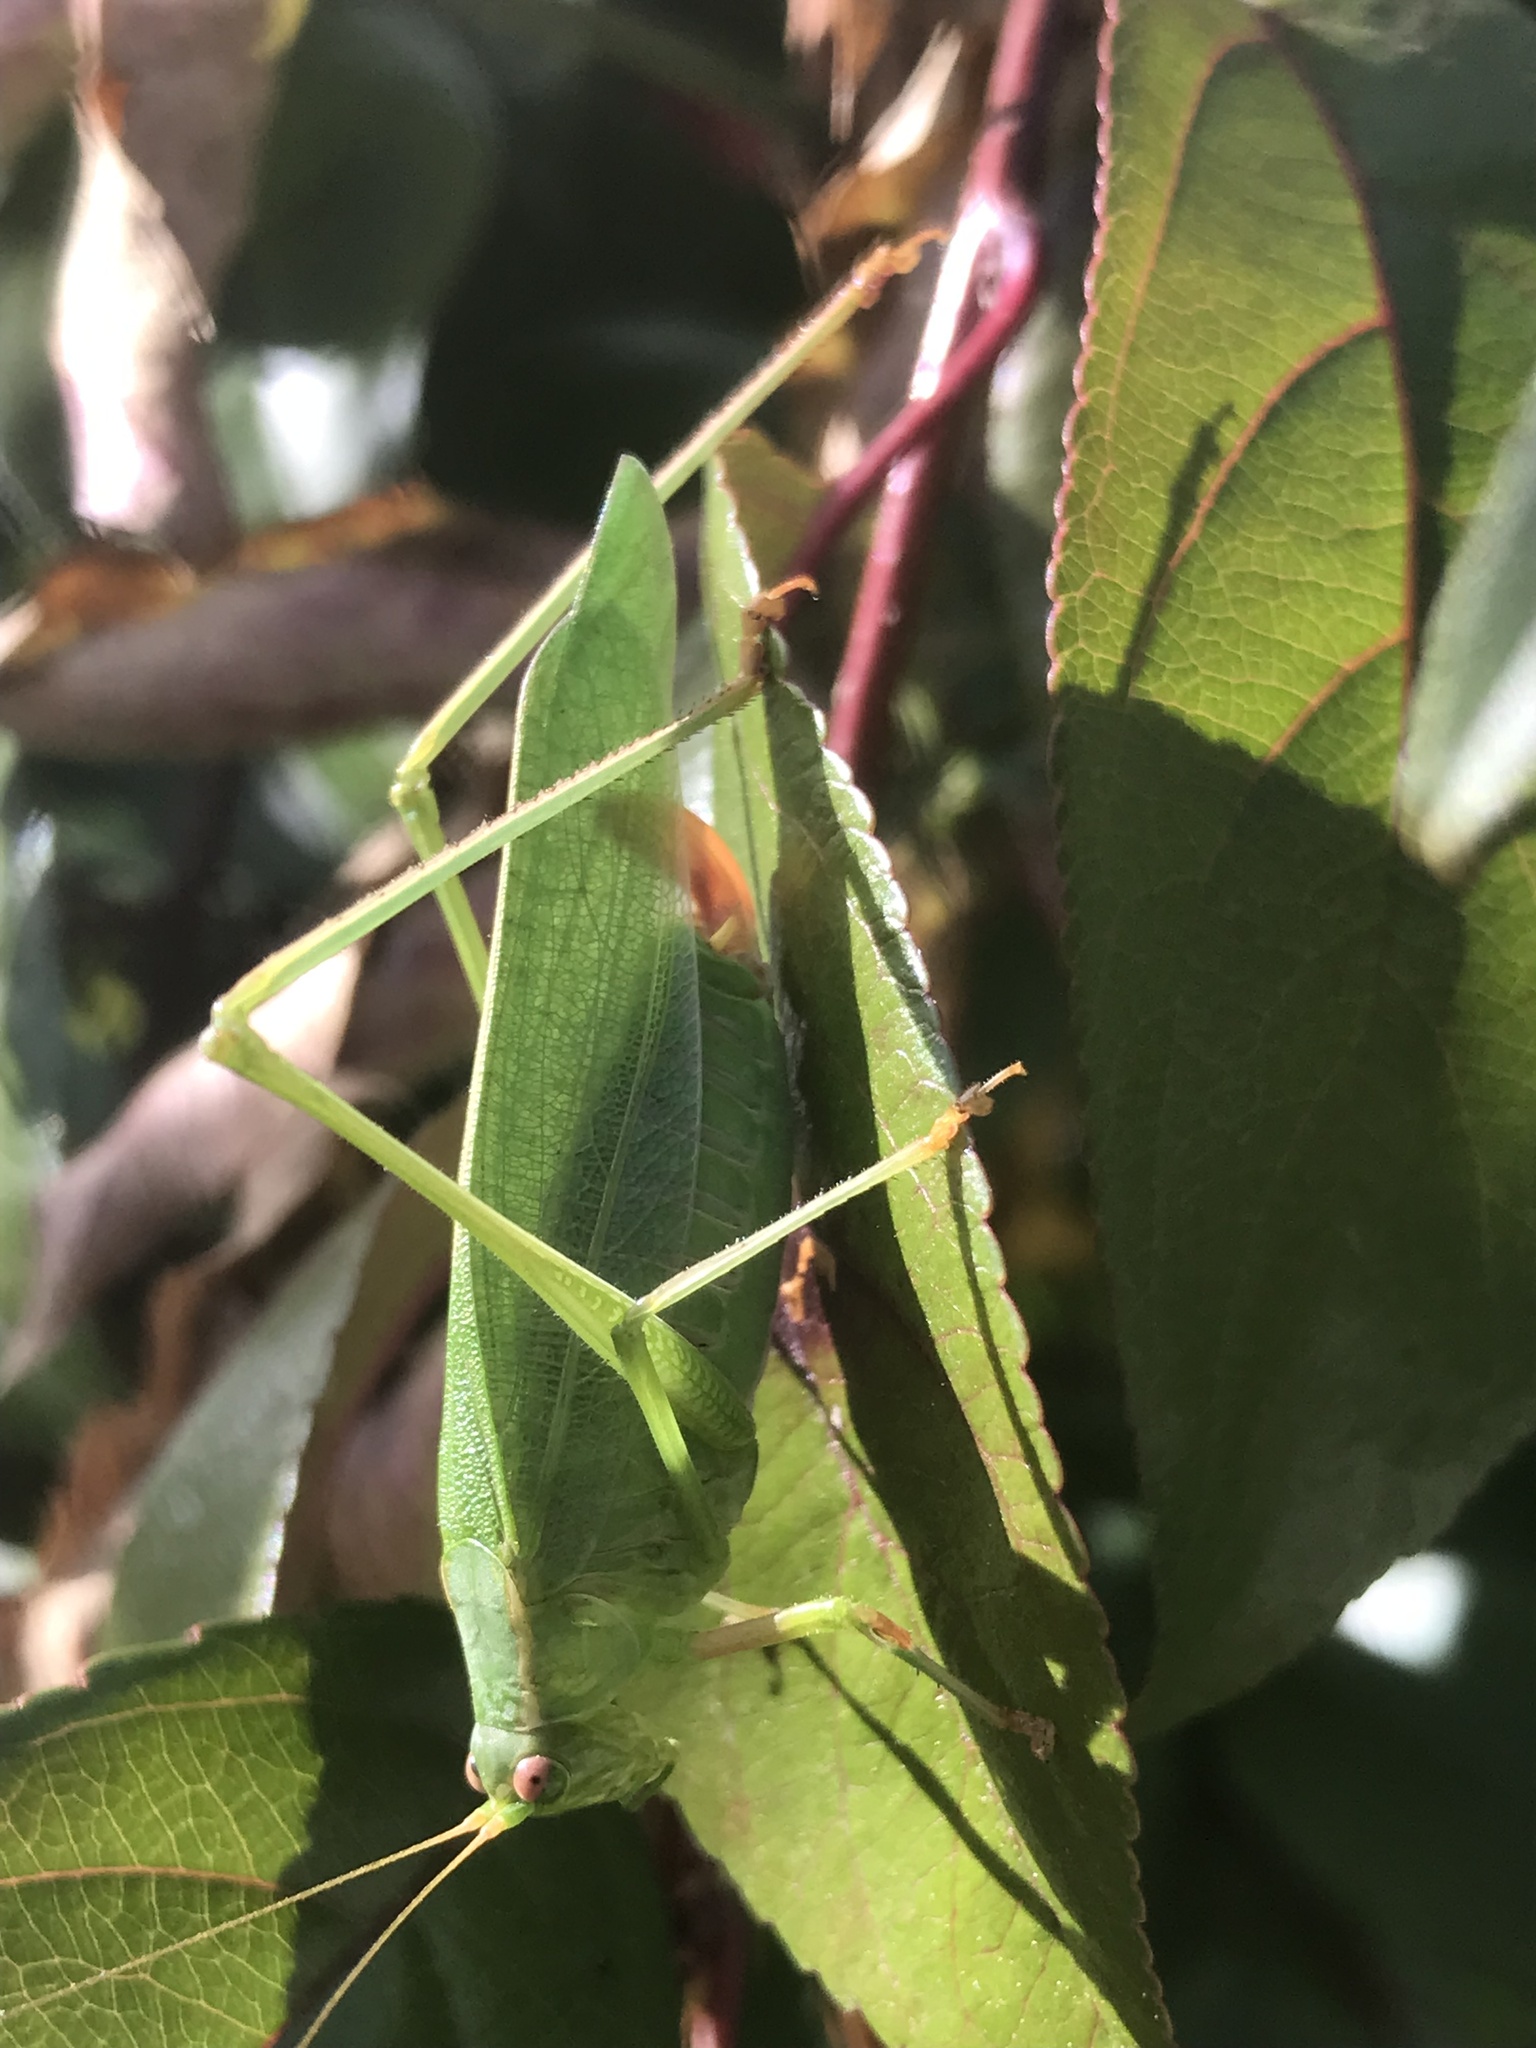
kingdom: Animalia
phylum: Arthropoda
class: Insecta
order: Orthoptera
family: Tettigoniidae
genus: Scudderia
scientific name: Scudderia furcata
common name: Fork-tailed bush katydid
